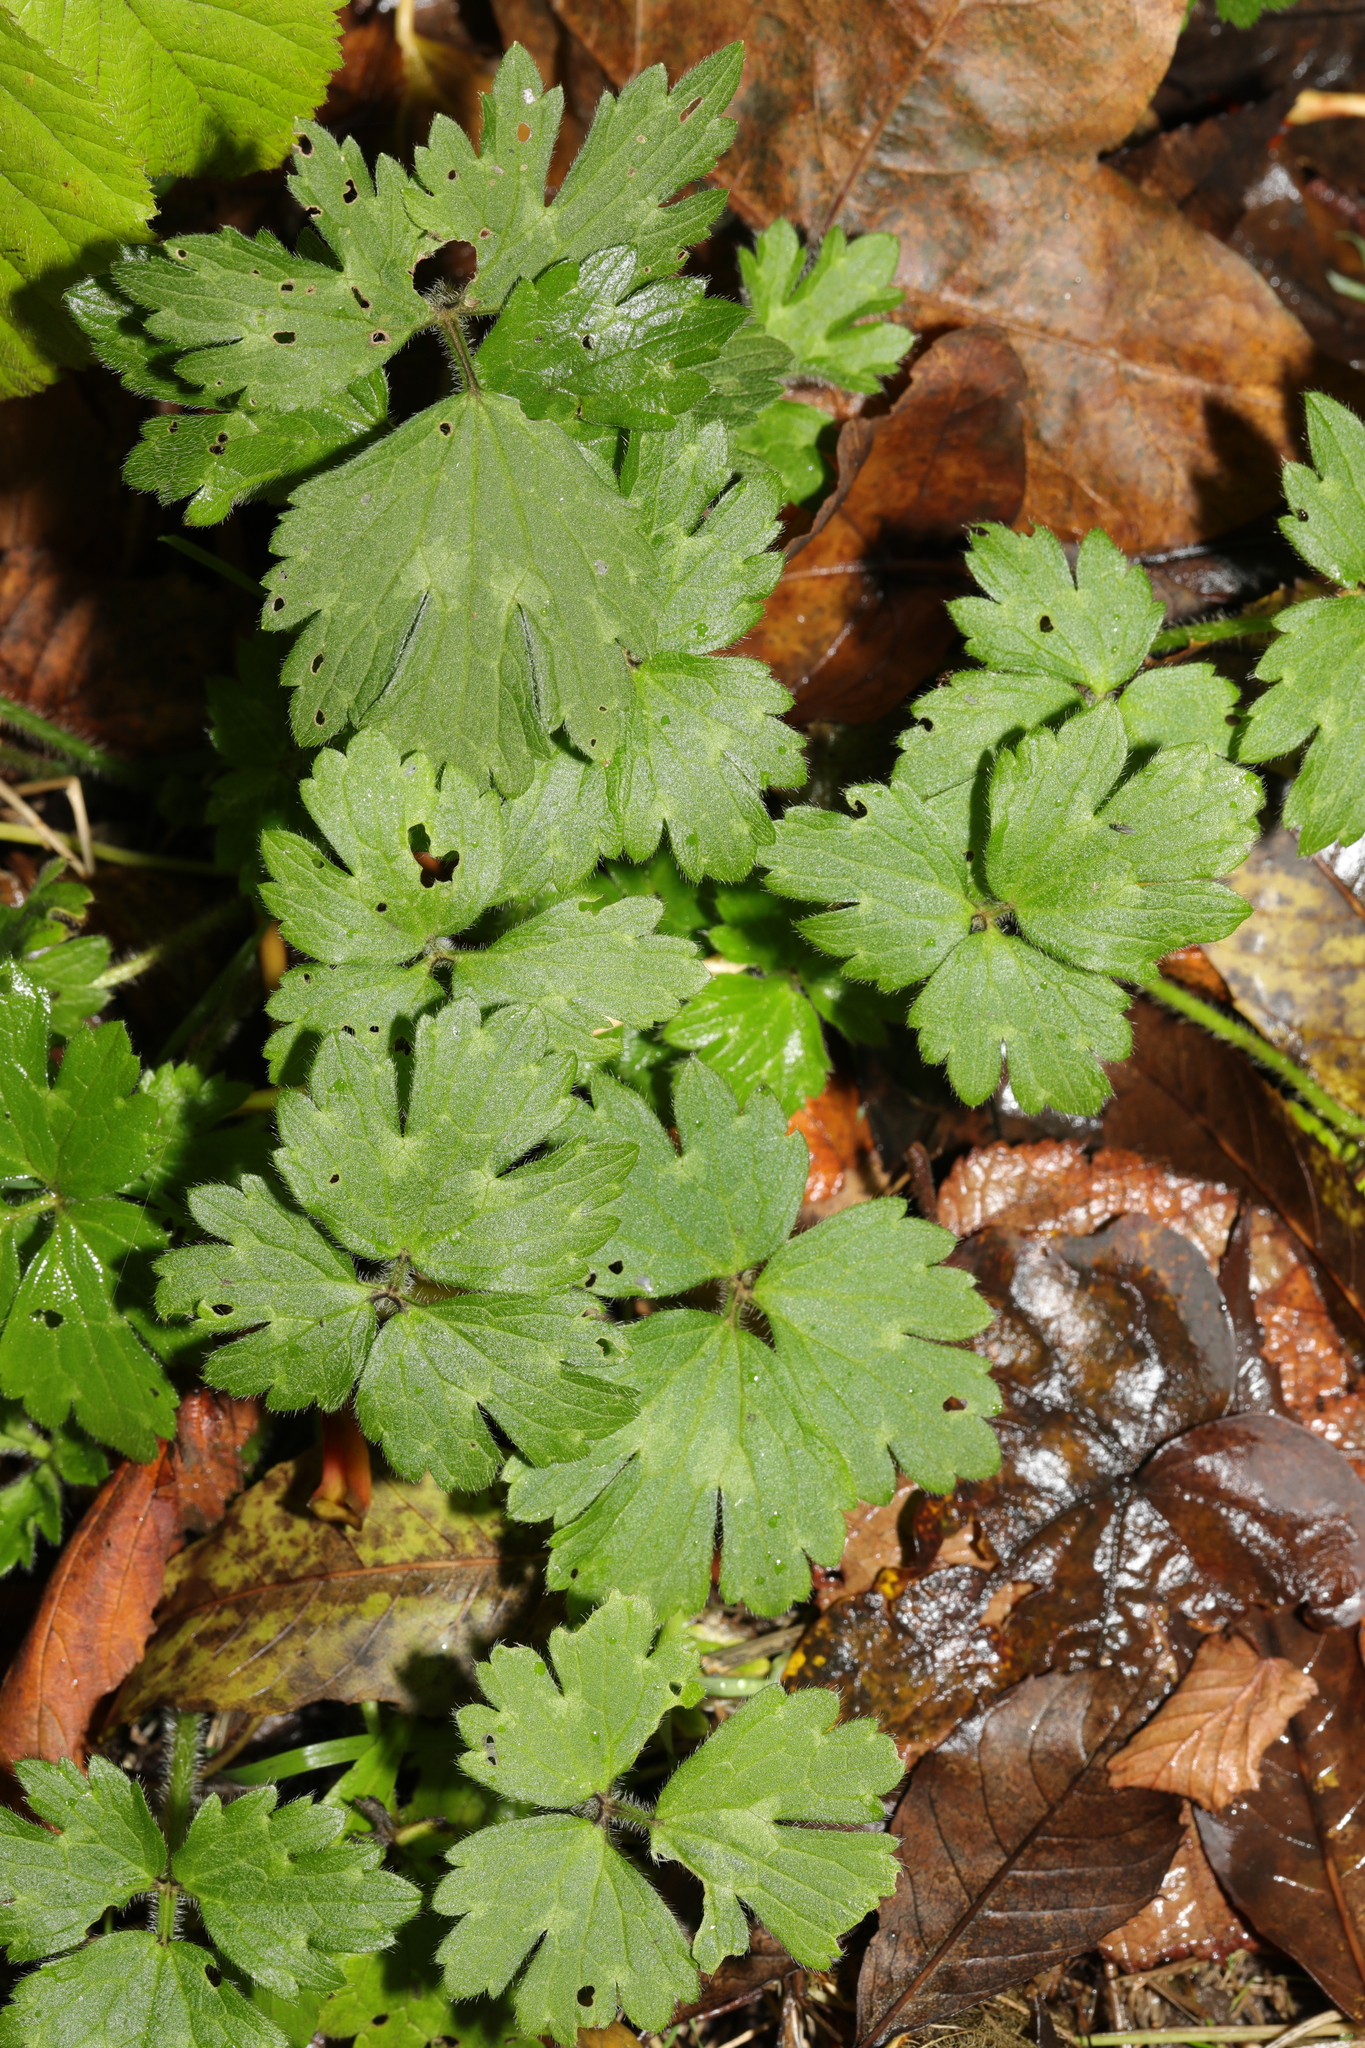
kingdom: Plantae
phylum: Tracheophyta
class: Magnoliopsida
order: Ranunculales
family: Ranunculaceae
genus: Ranunculus
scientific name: Ranunculus repens
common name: Creeping buttercup
